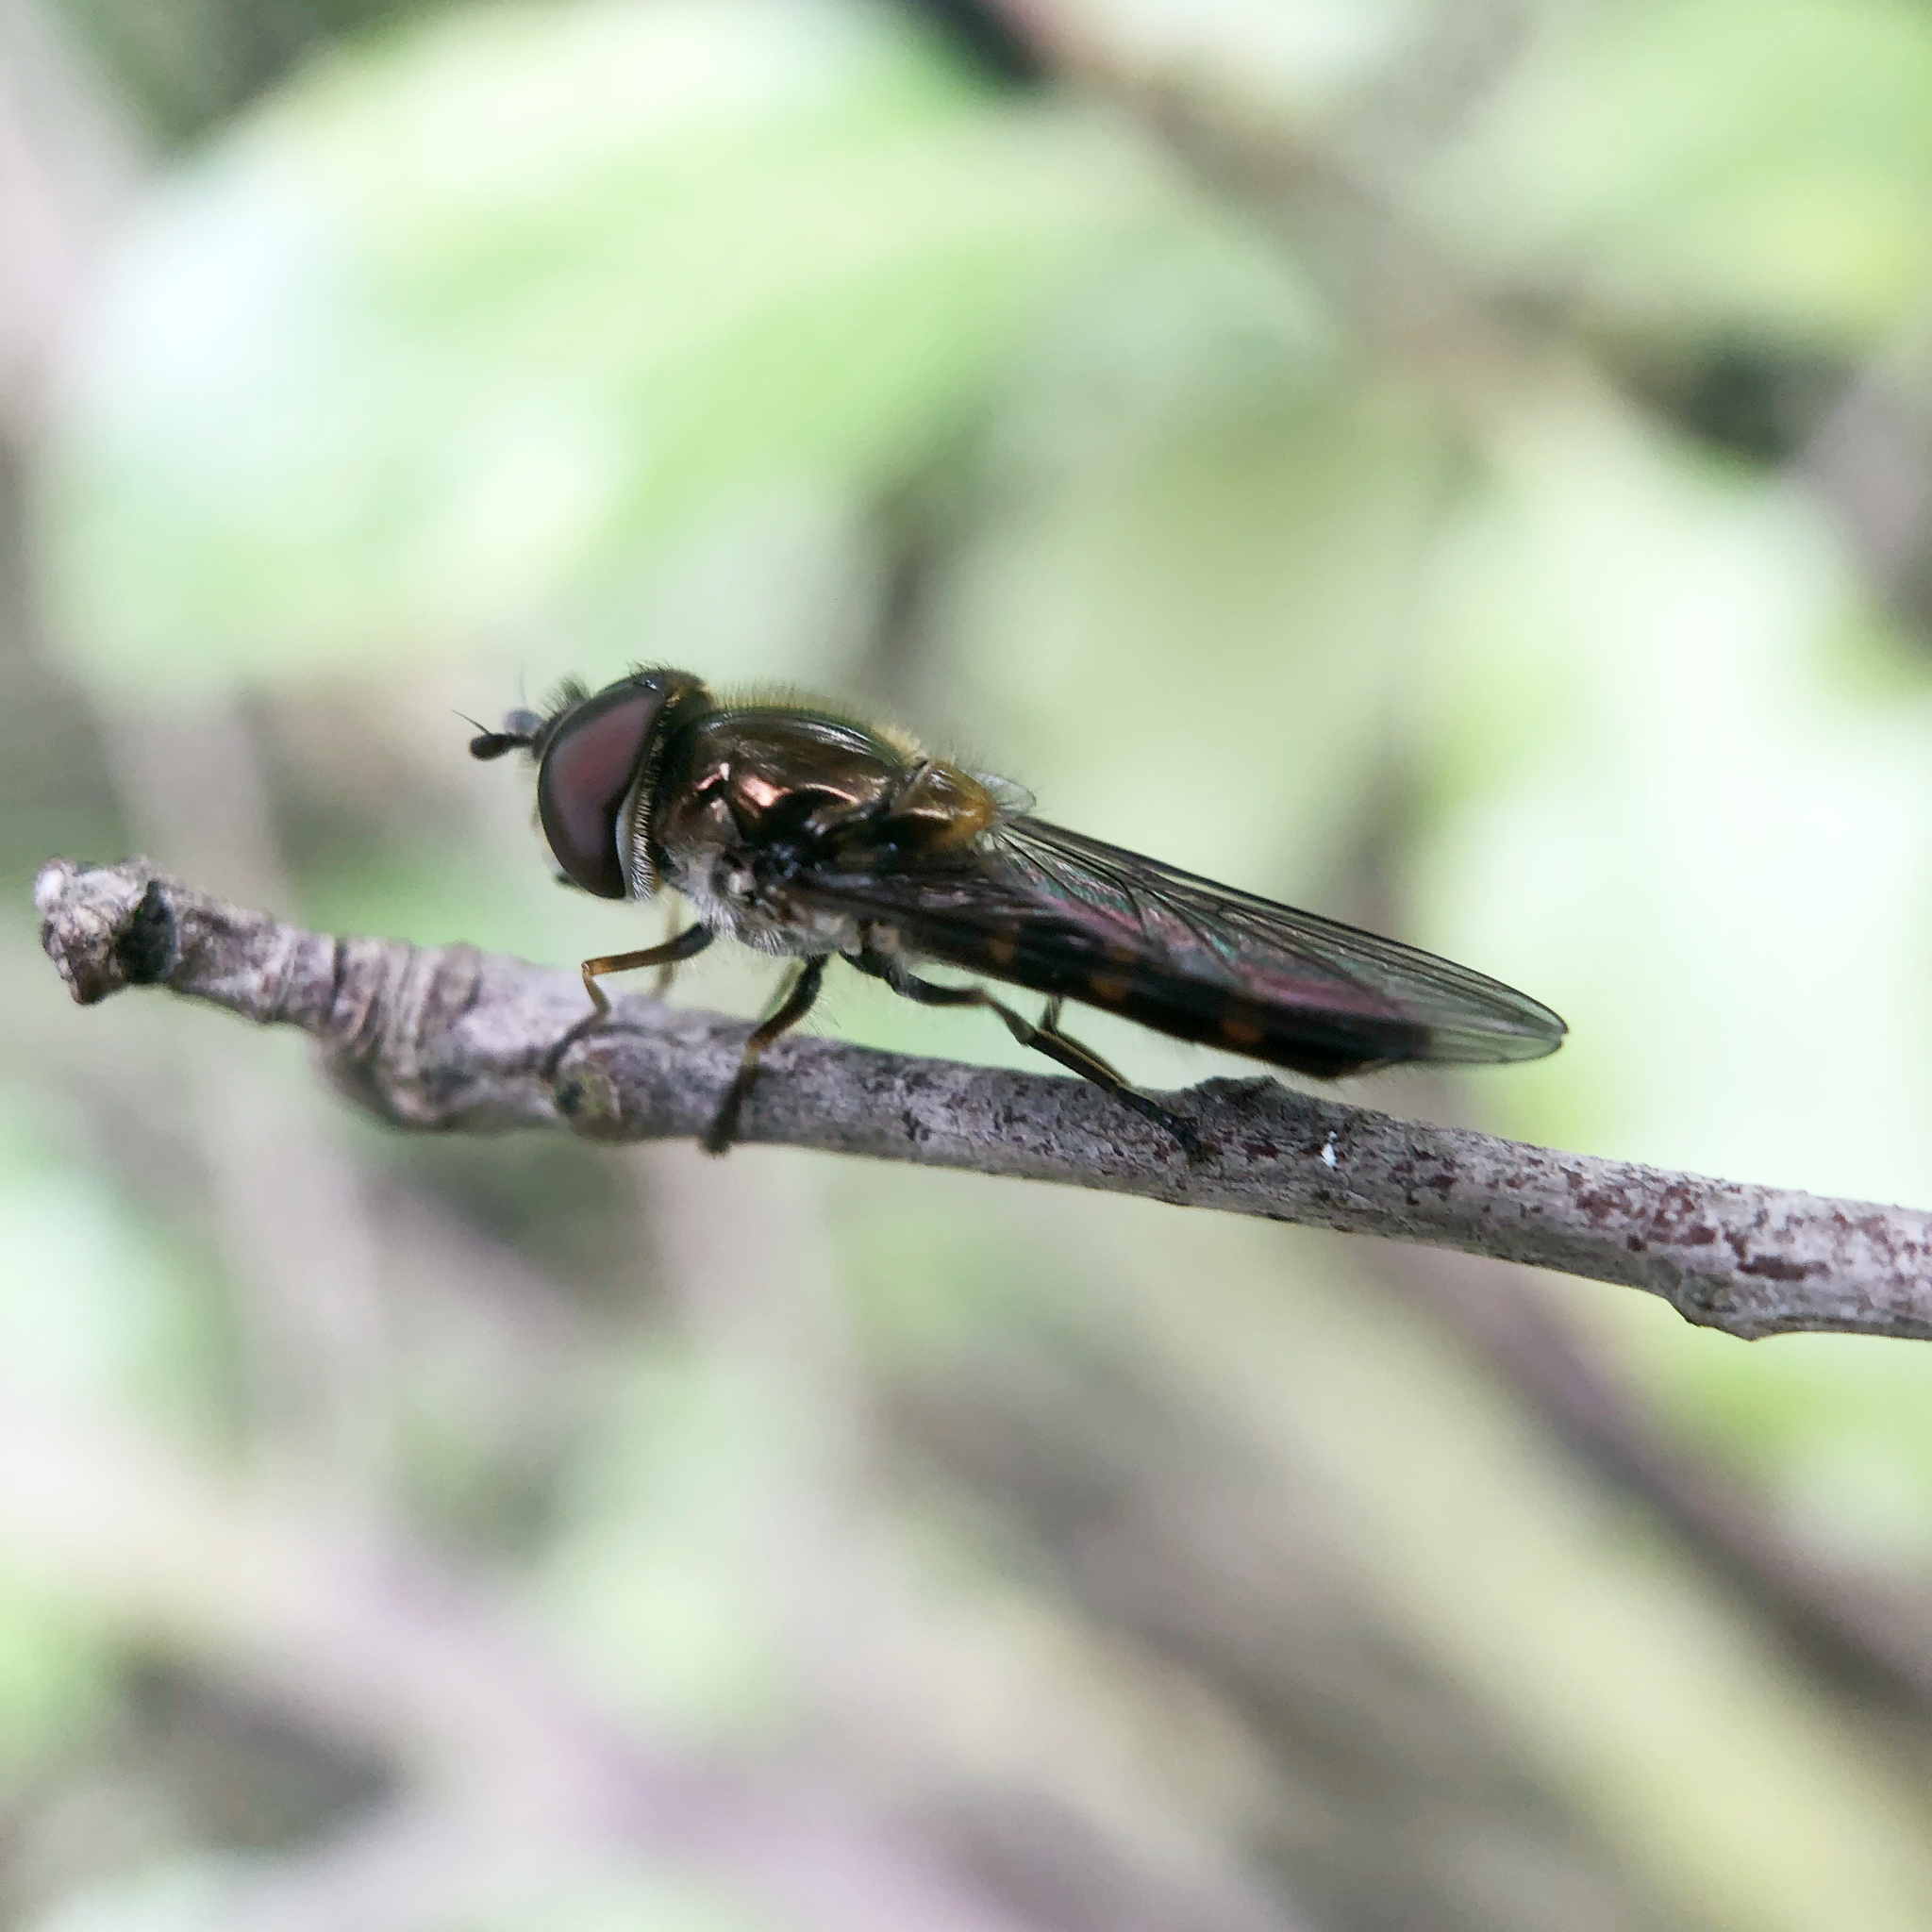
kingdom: Animalia
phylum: Arthropoda
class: Insecta
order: Diptera
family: Syrphidae
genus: Melangyna
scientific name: Melangyna novaezelandiae
